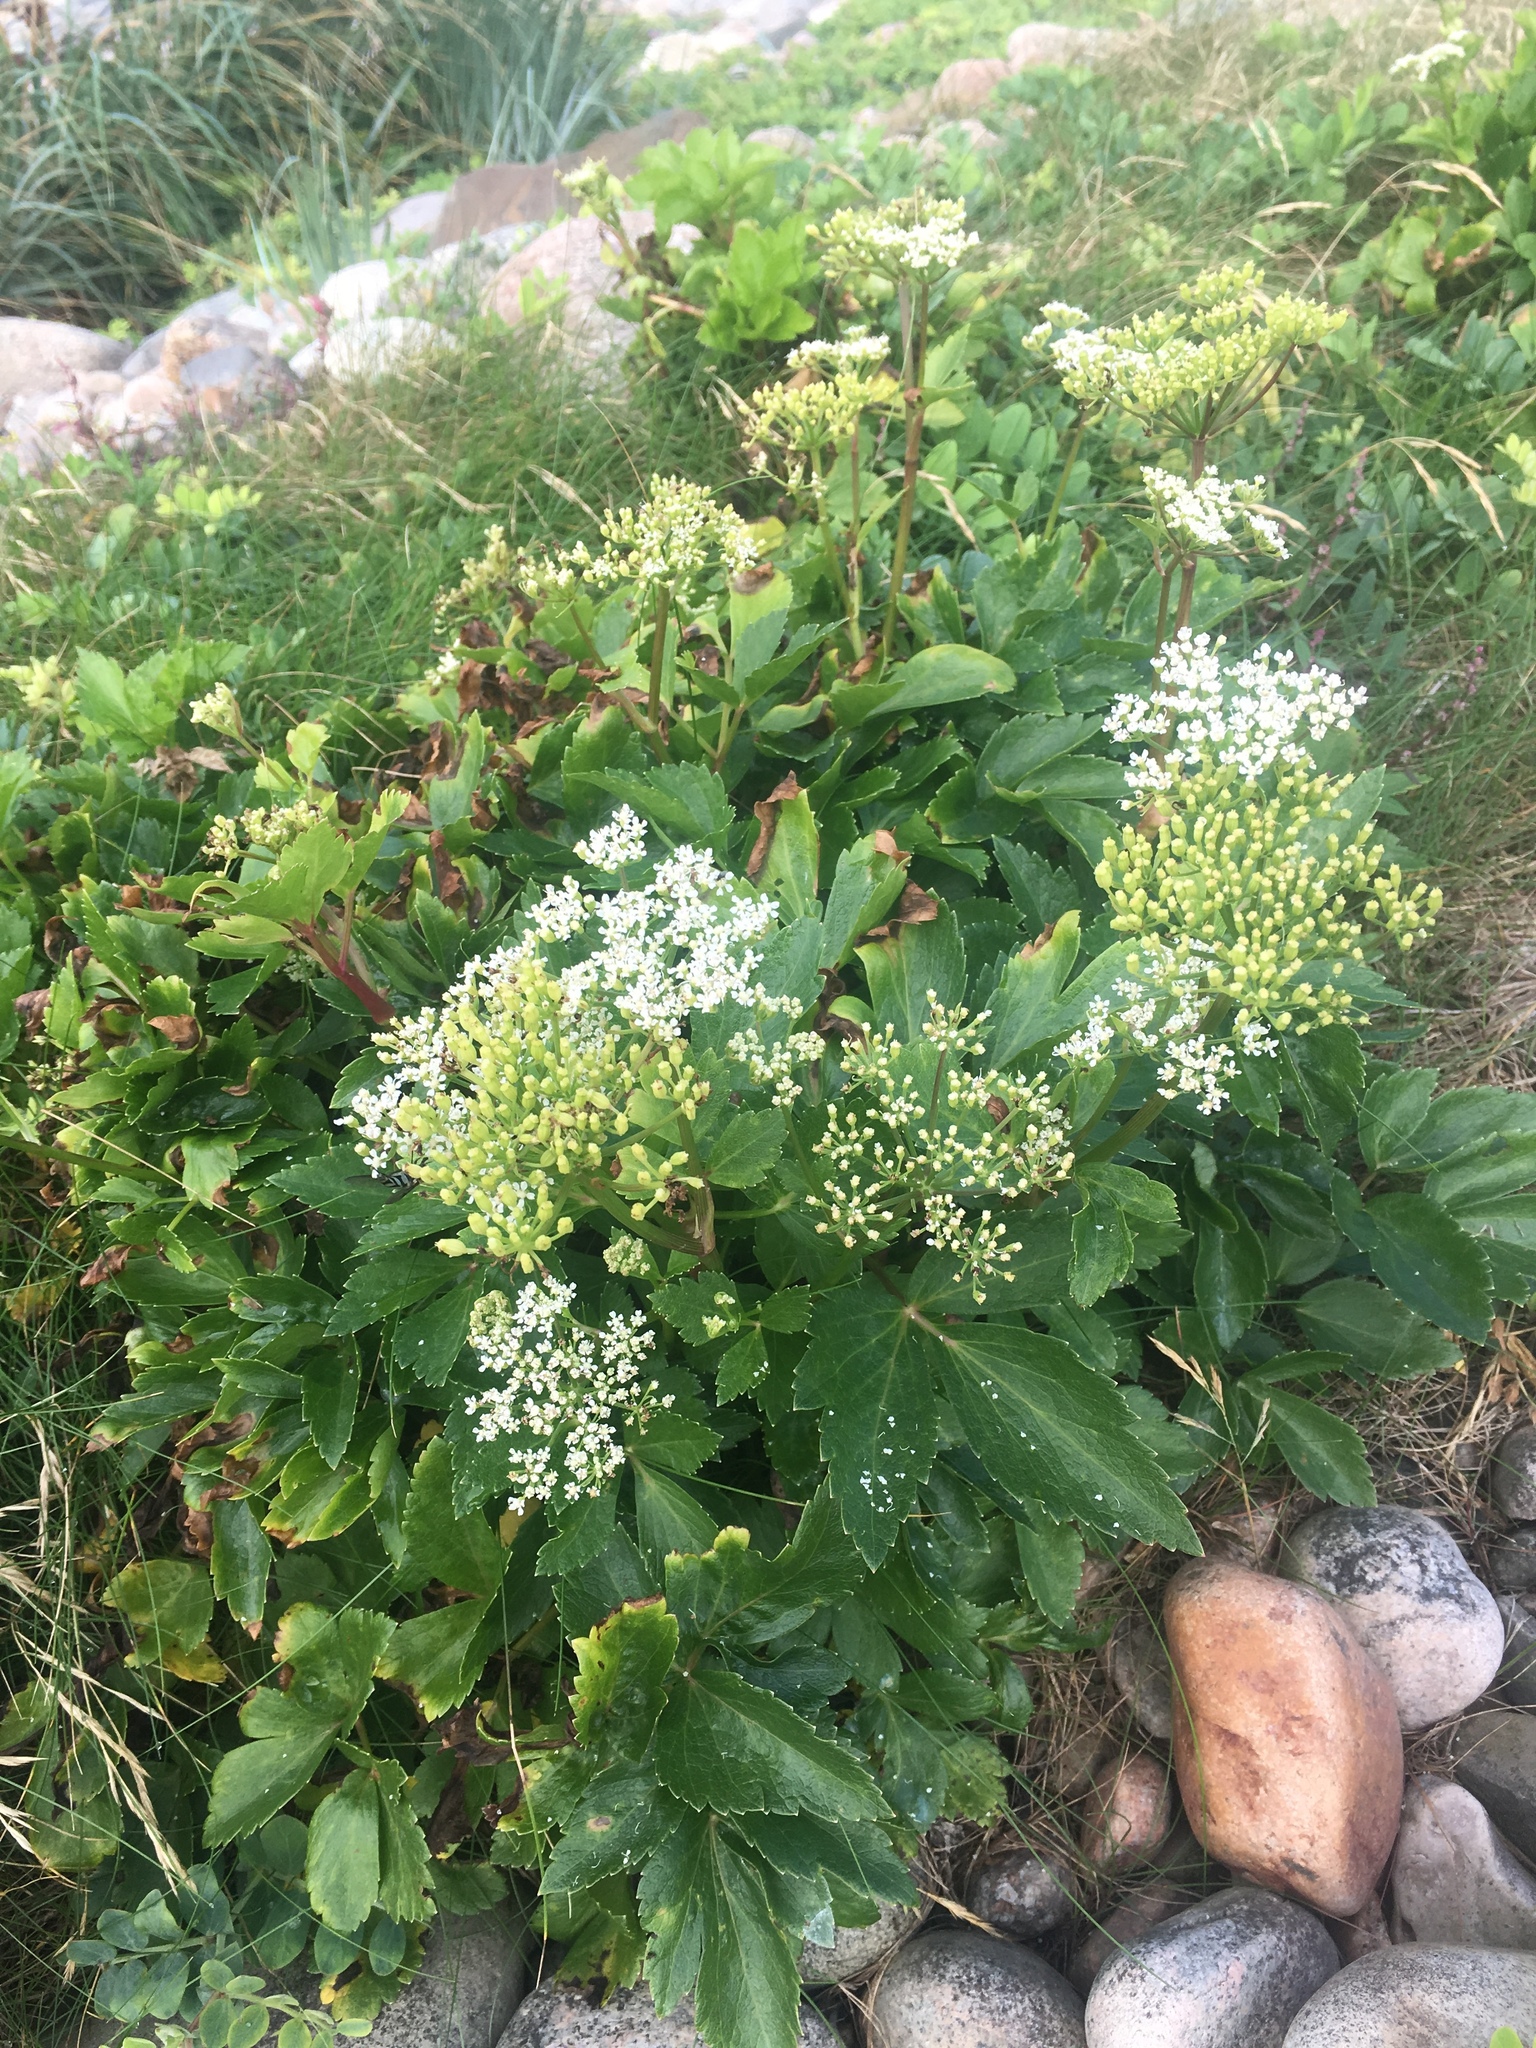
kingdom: Plantae
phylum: Tracheophyta
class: Magnoliopsida
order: Apiales
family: Apiaceae
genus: Ligusticum
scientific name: Ligusticum scothicum
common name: Beach lovage
